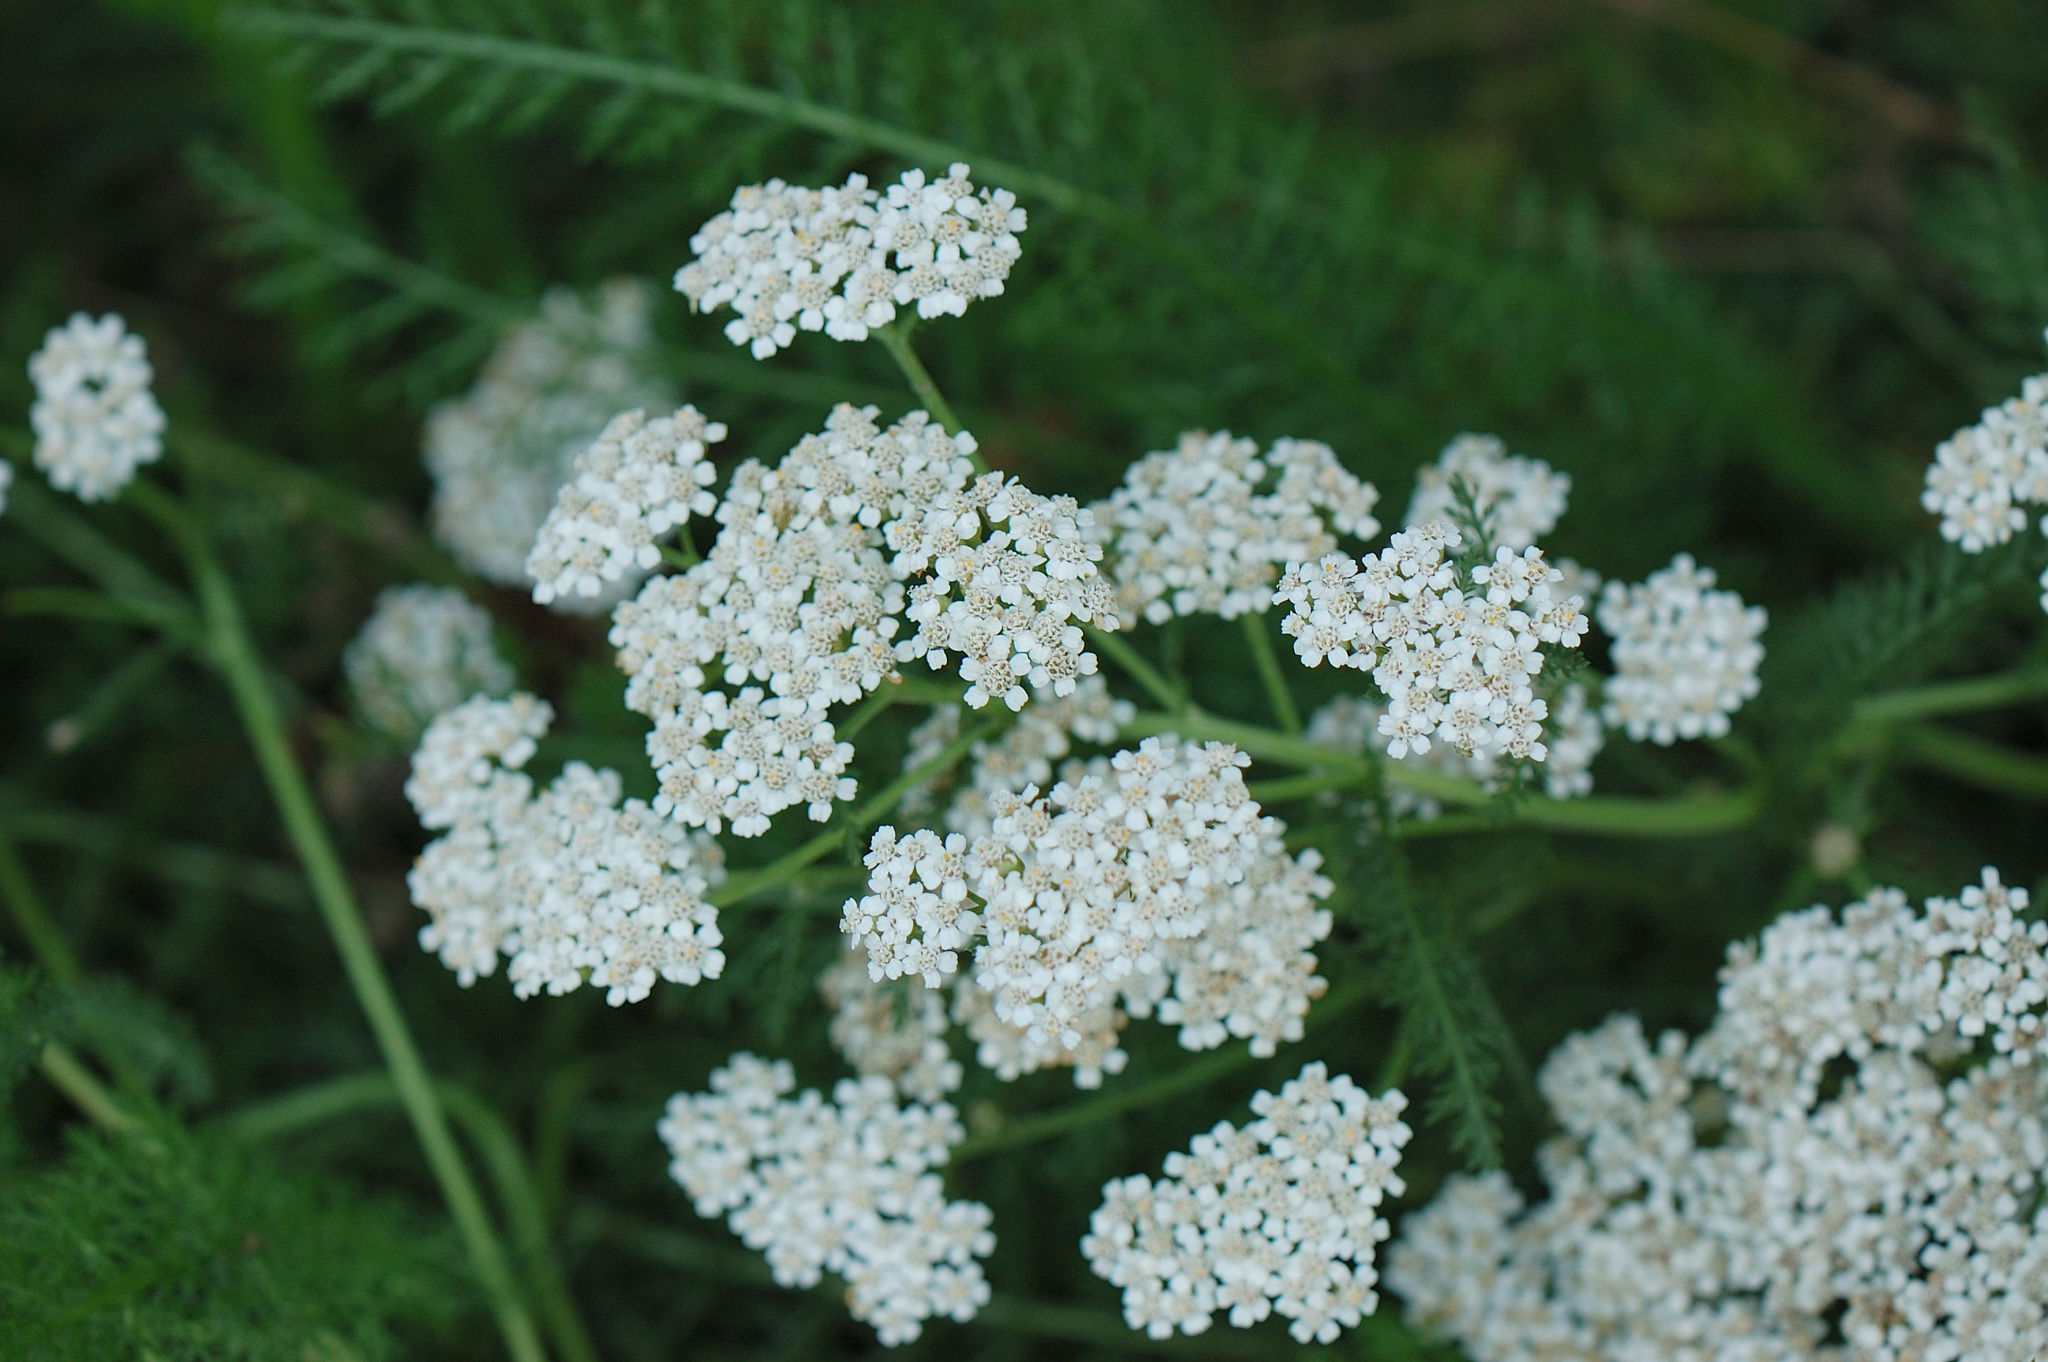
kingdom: Plantae
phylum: Tracheophyta
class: Magnoliopsida
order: Asterales
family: Asteraceae
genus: Achillea
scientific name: Achillea millefolium
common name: Yarrow
